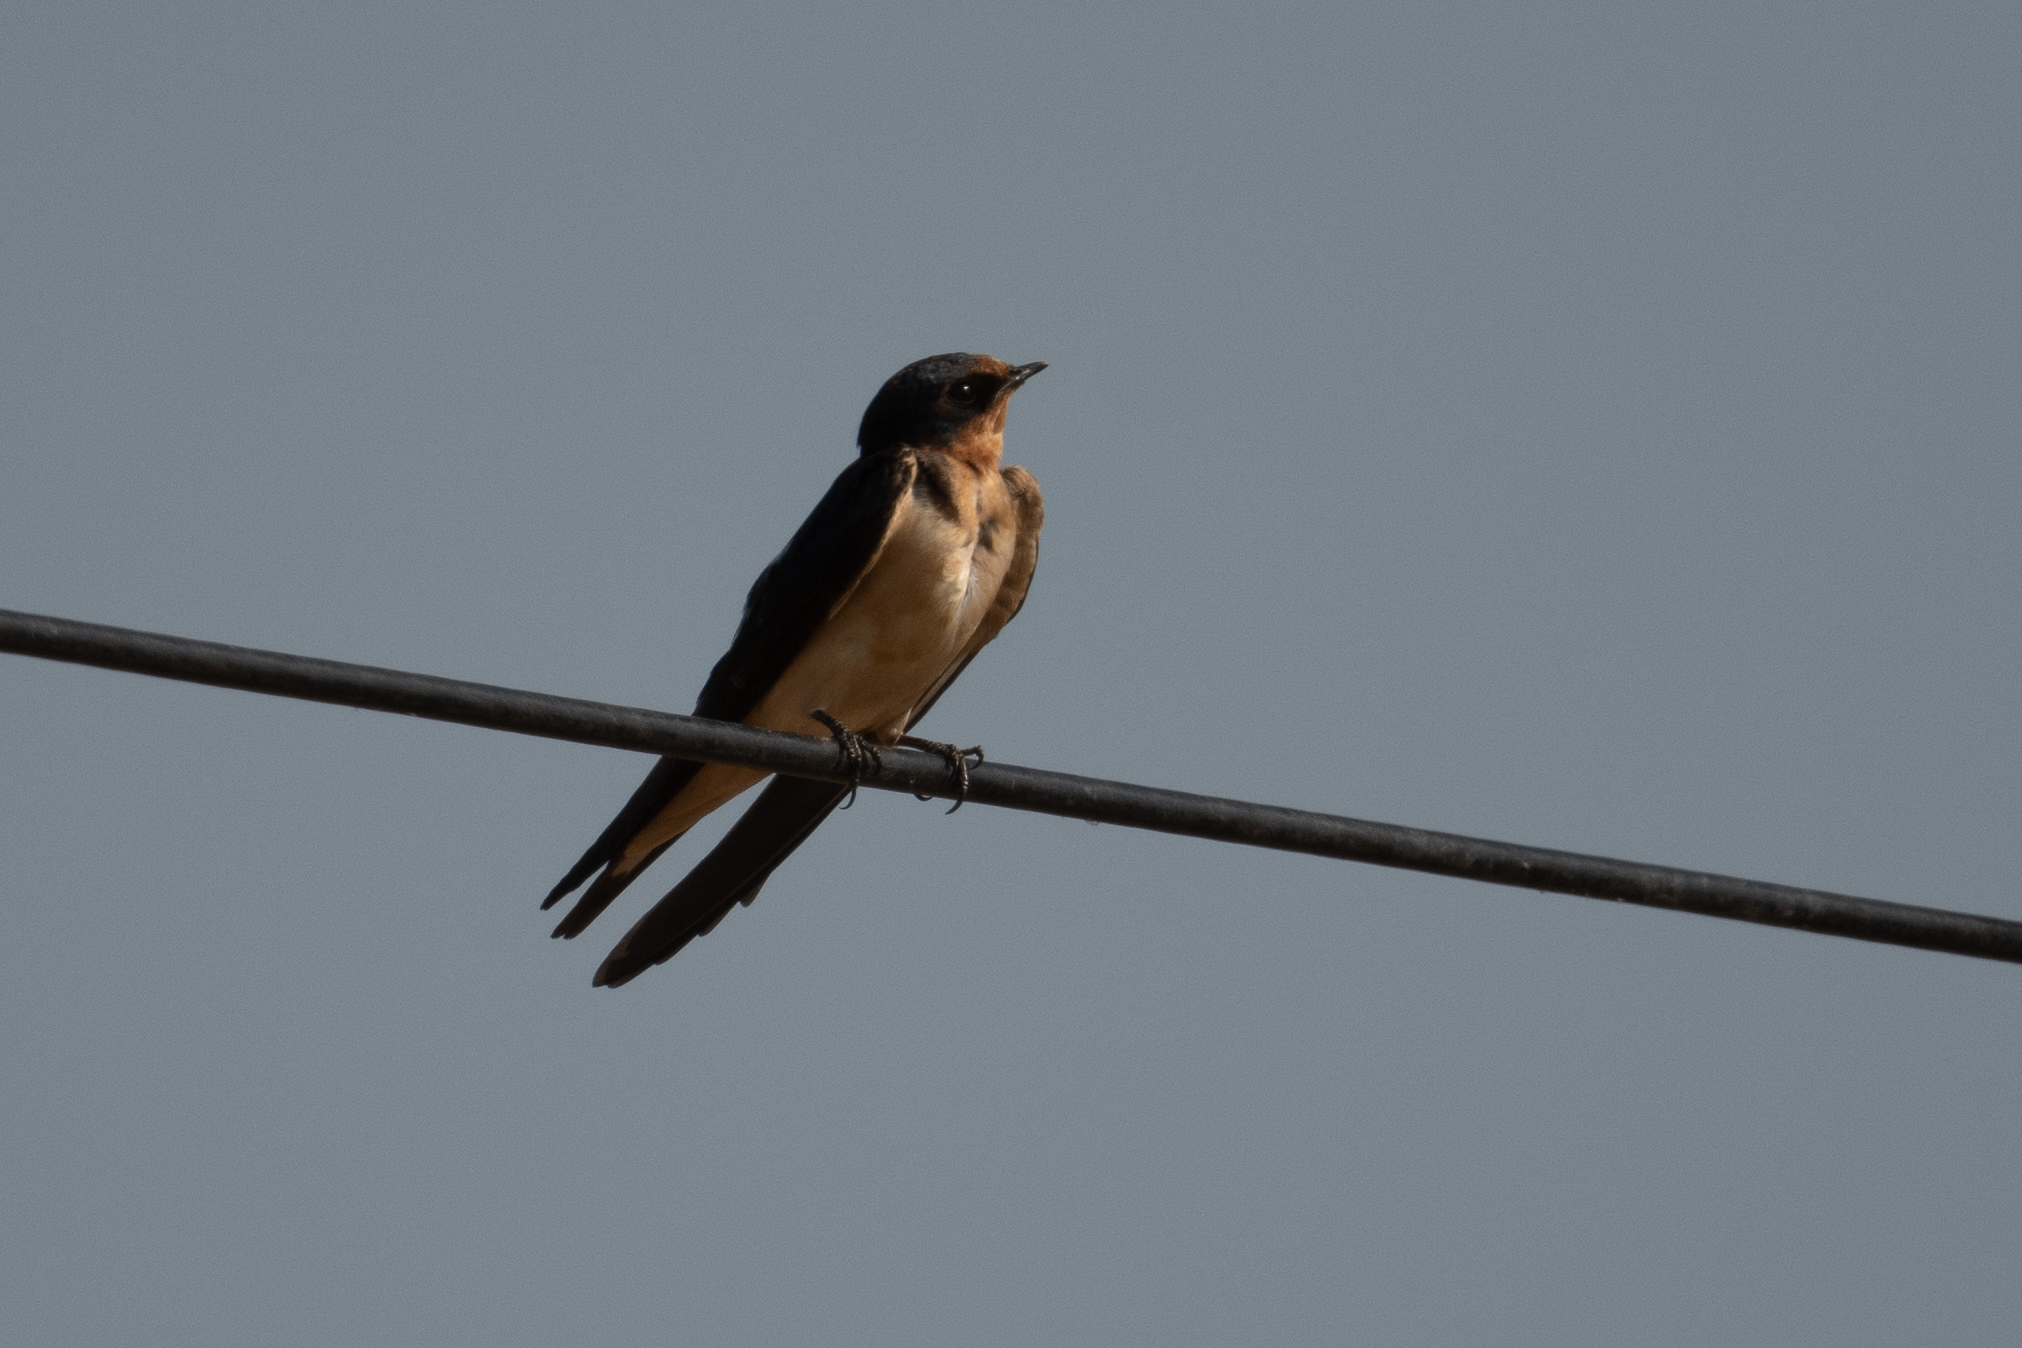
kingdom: Animalia
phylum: Chordata
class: Aves
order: Passeriformes
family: Hirundinidae
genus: Hirundo
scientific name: Hirundo rustica
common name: Barn swallow
